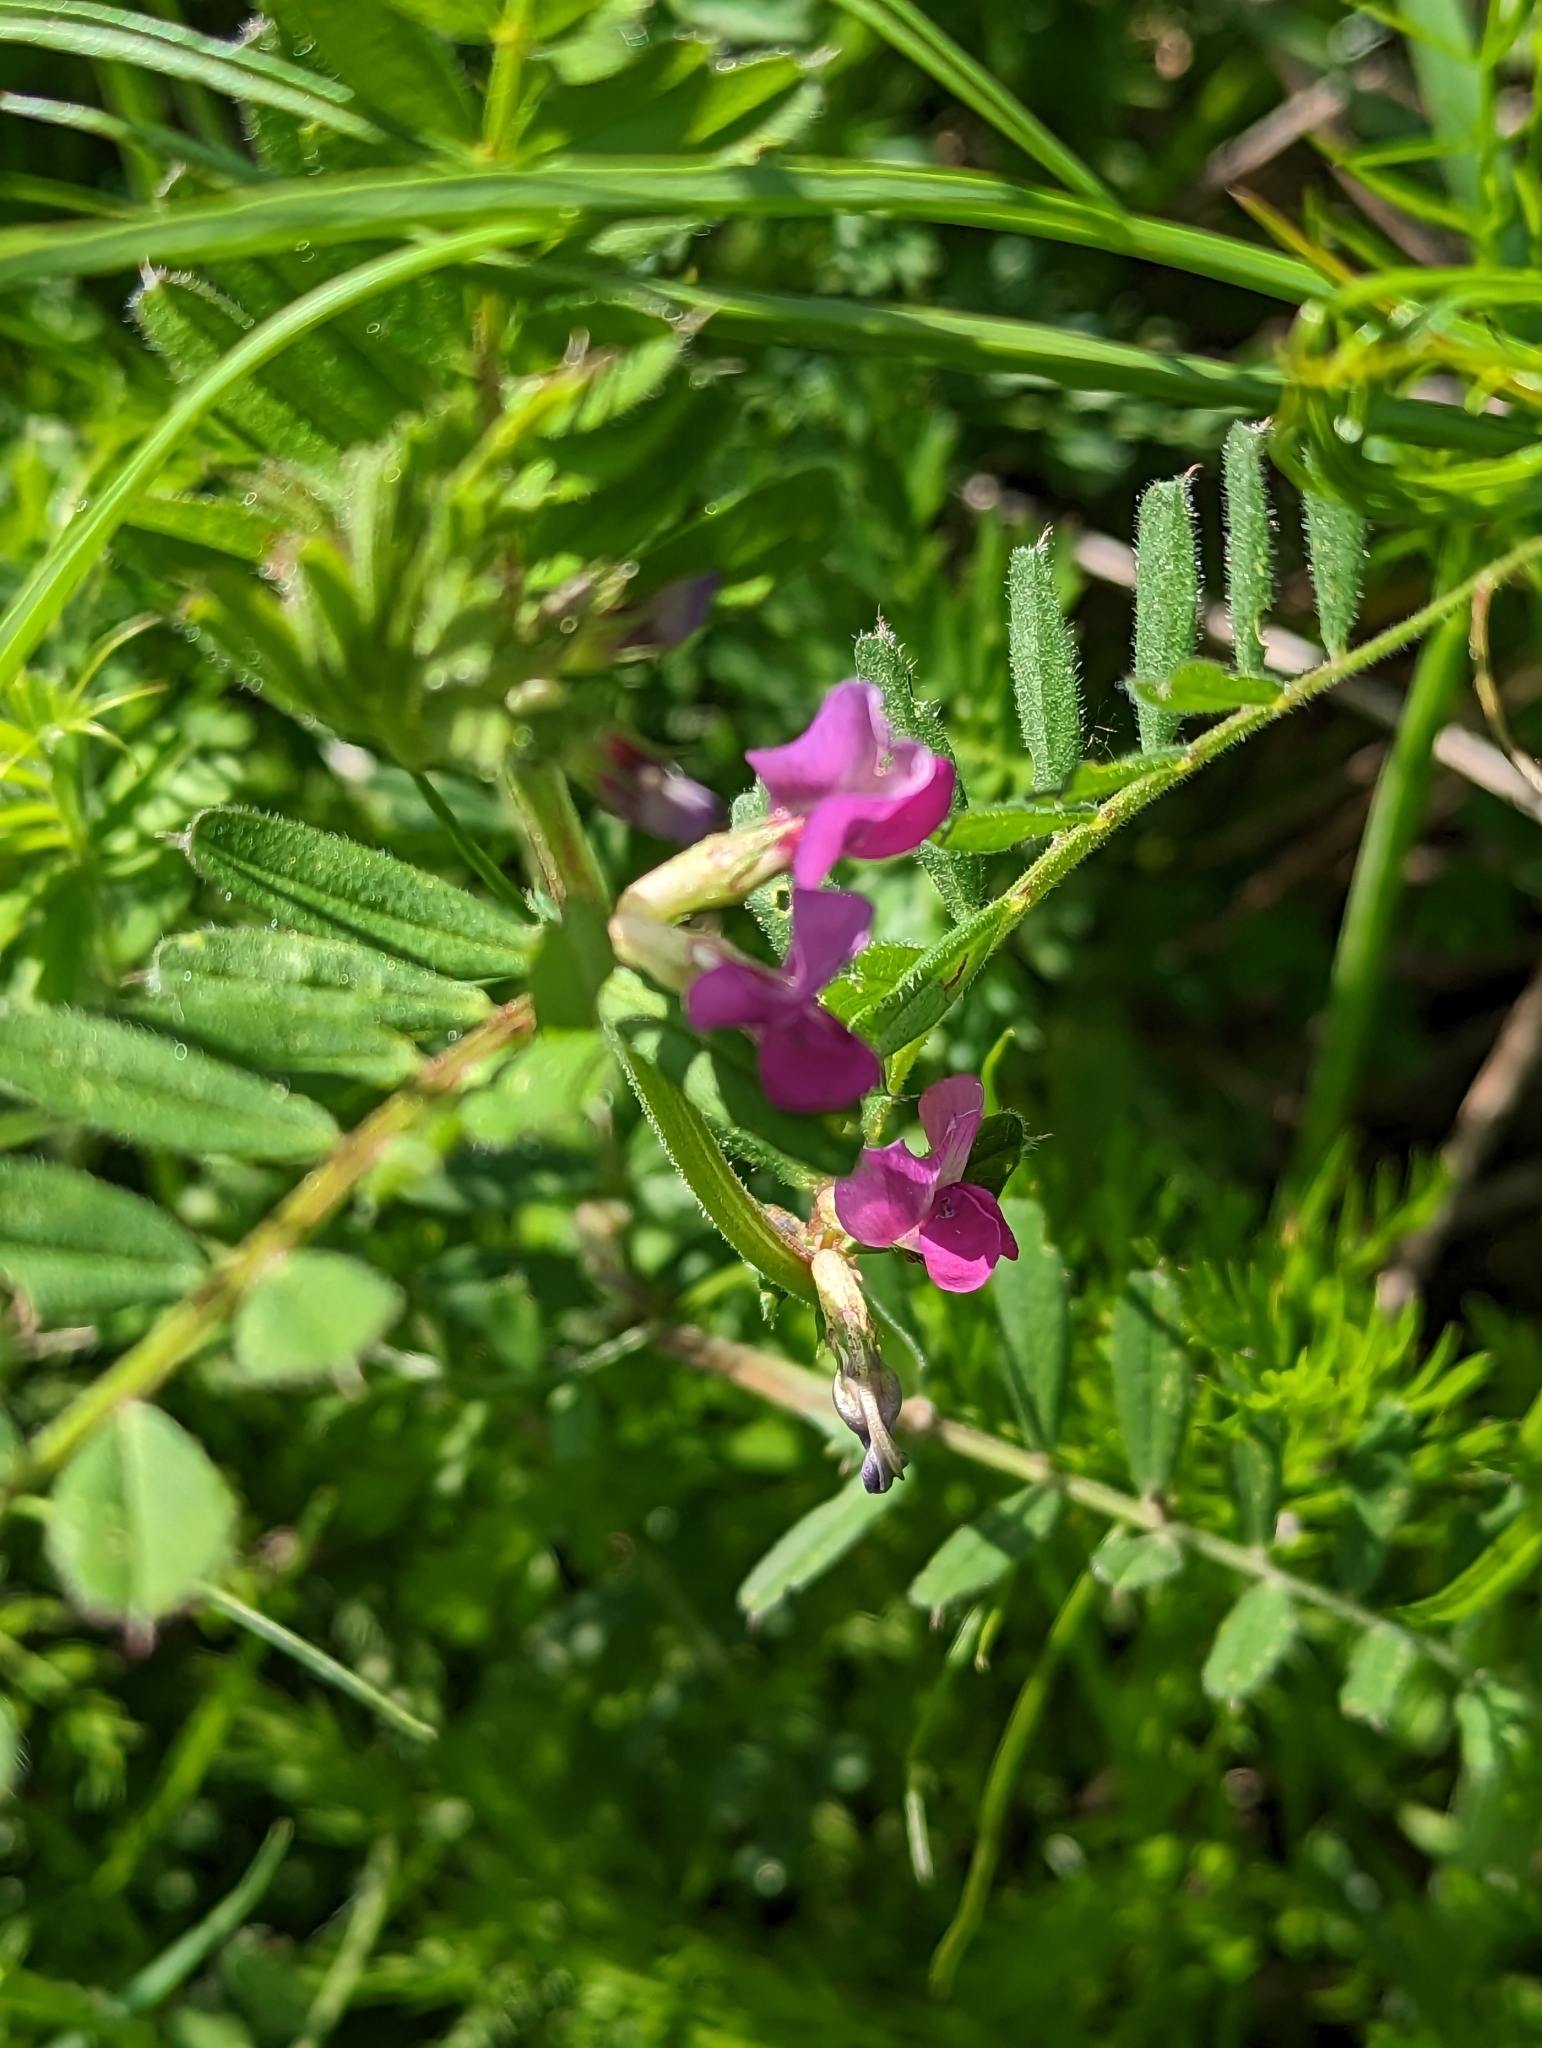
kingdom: Plantae
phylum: Tracheophyta
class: Magnoliopsida
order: Fabales
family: Fabaceae
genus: Vicia
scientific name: Vicia sativa
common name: Garden vetch
